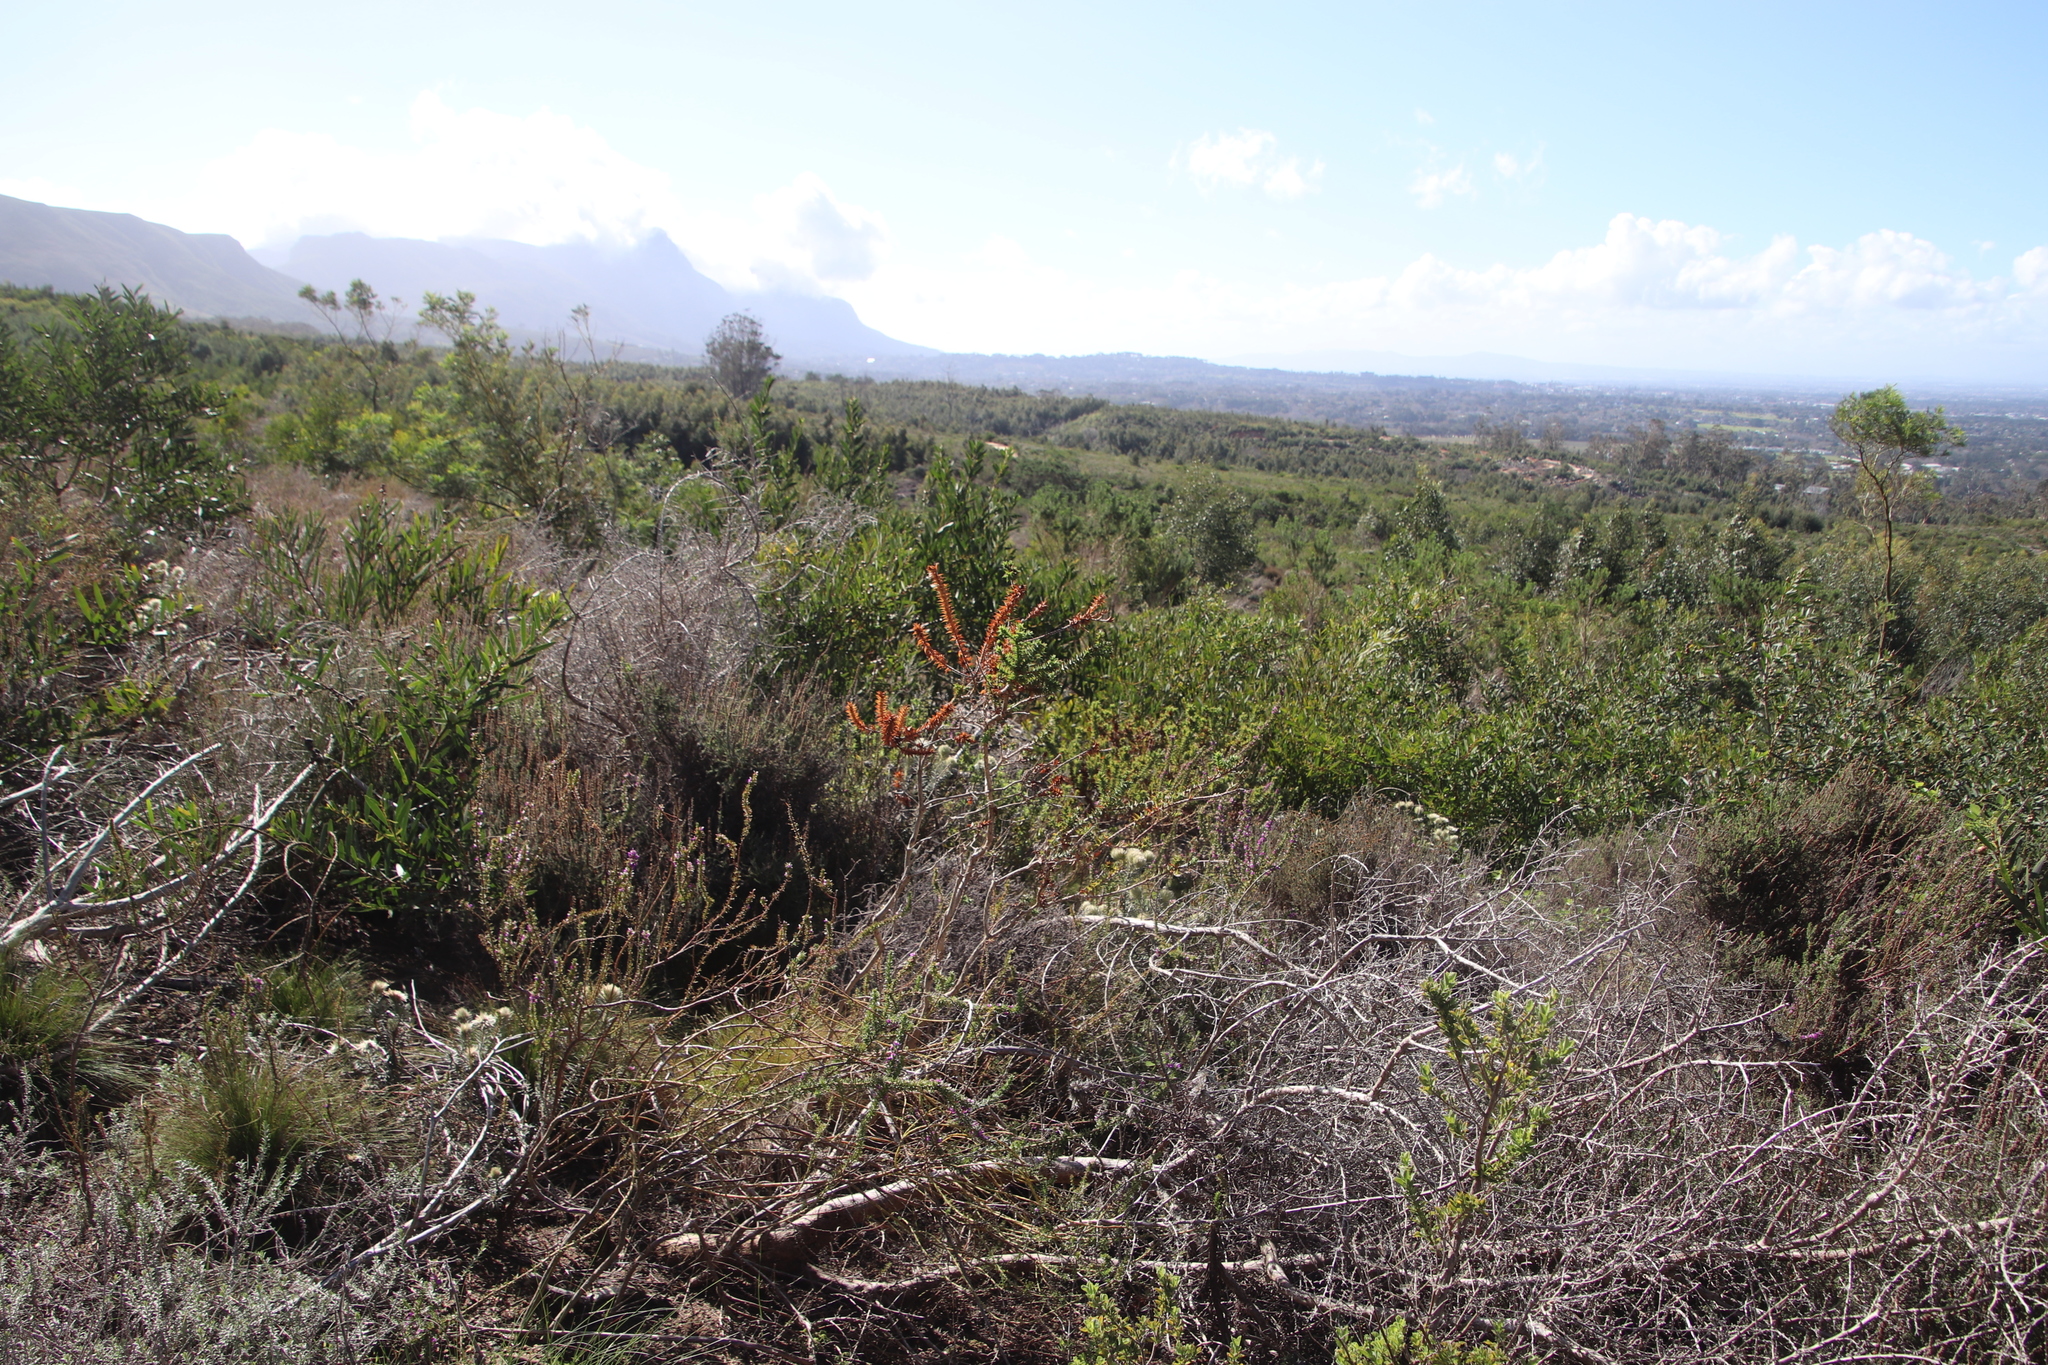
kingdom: Plantae
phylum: Tracheophyta
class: Magnoliopsida
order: Fabales
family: Fabaceae
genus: Aspalathus
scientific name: Aspalathus cordata
